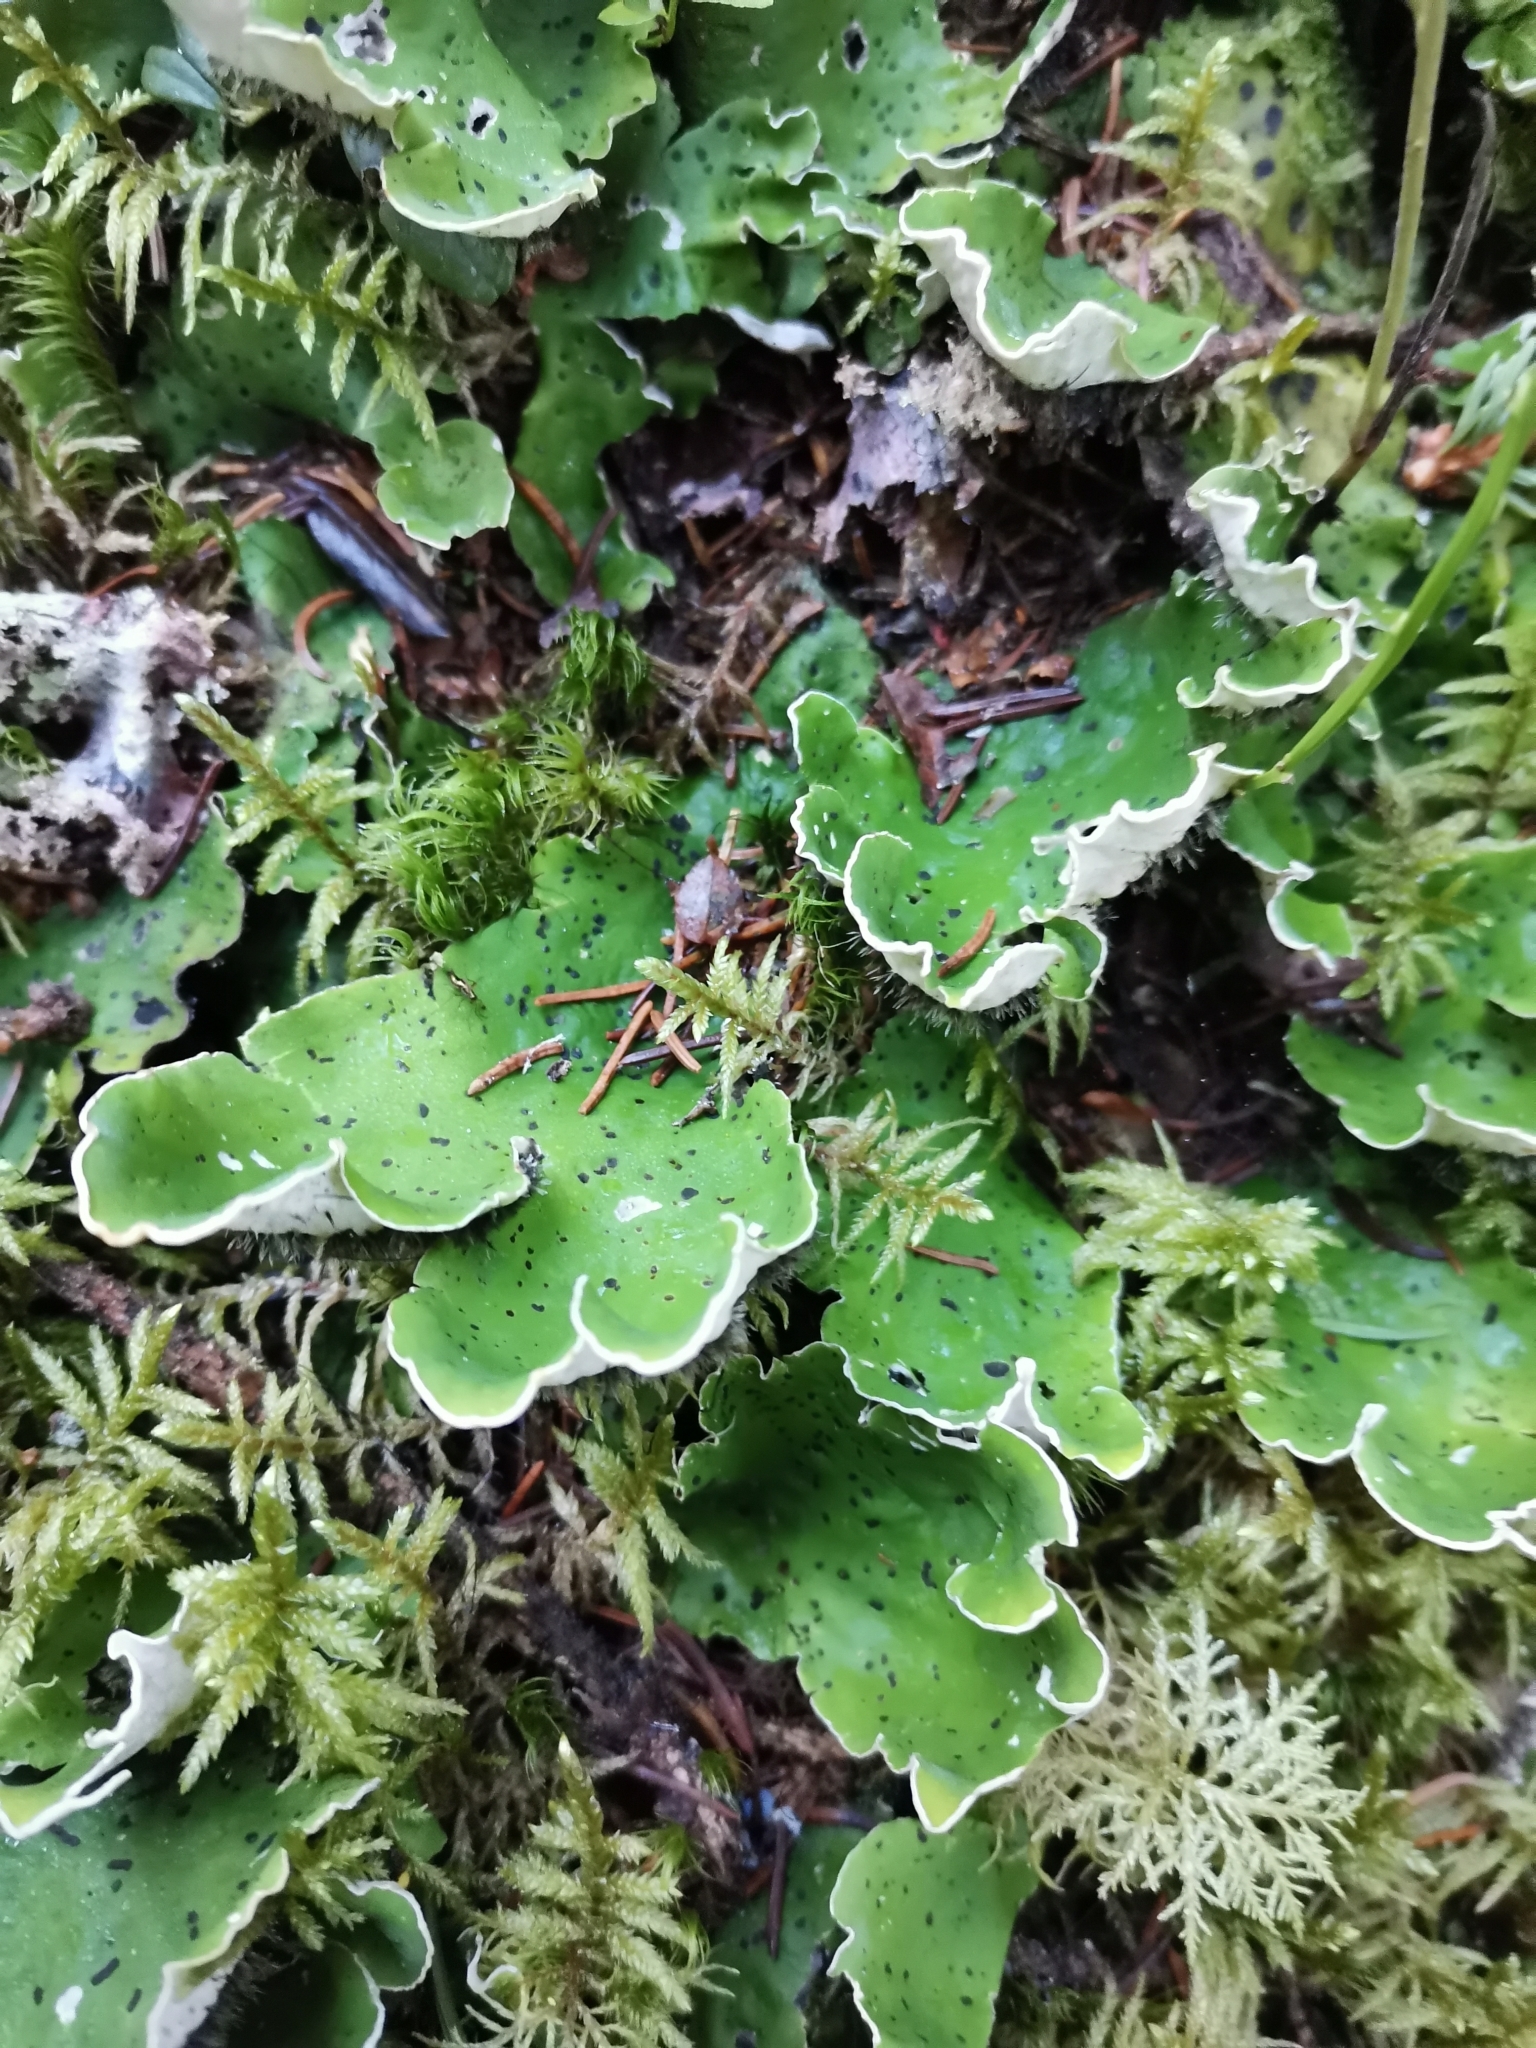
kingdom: Fungi
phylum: Ascomycota
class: Lecanoromycetes
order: Peltigerales
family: Peltigeraceae
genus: Peltigera
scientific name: Peltigera aphthosa
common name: Common freckle pelt lichen
